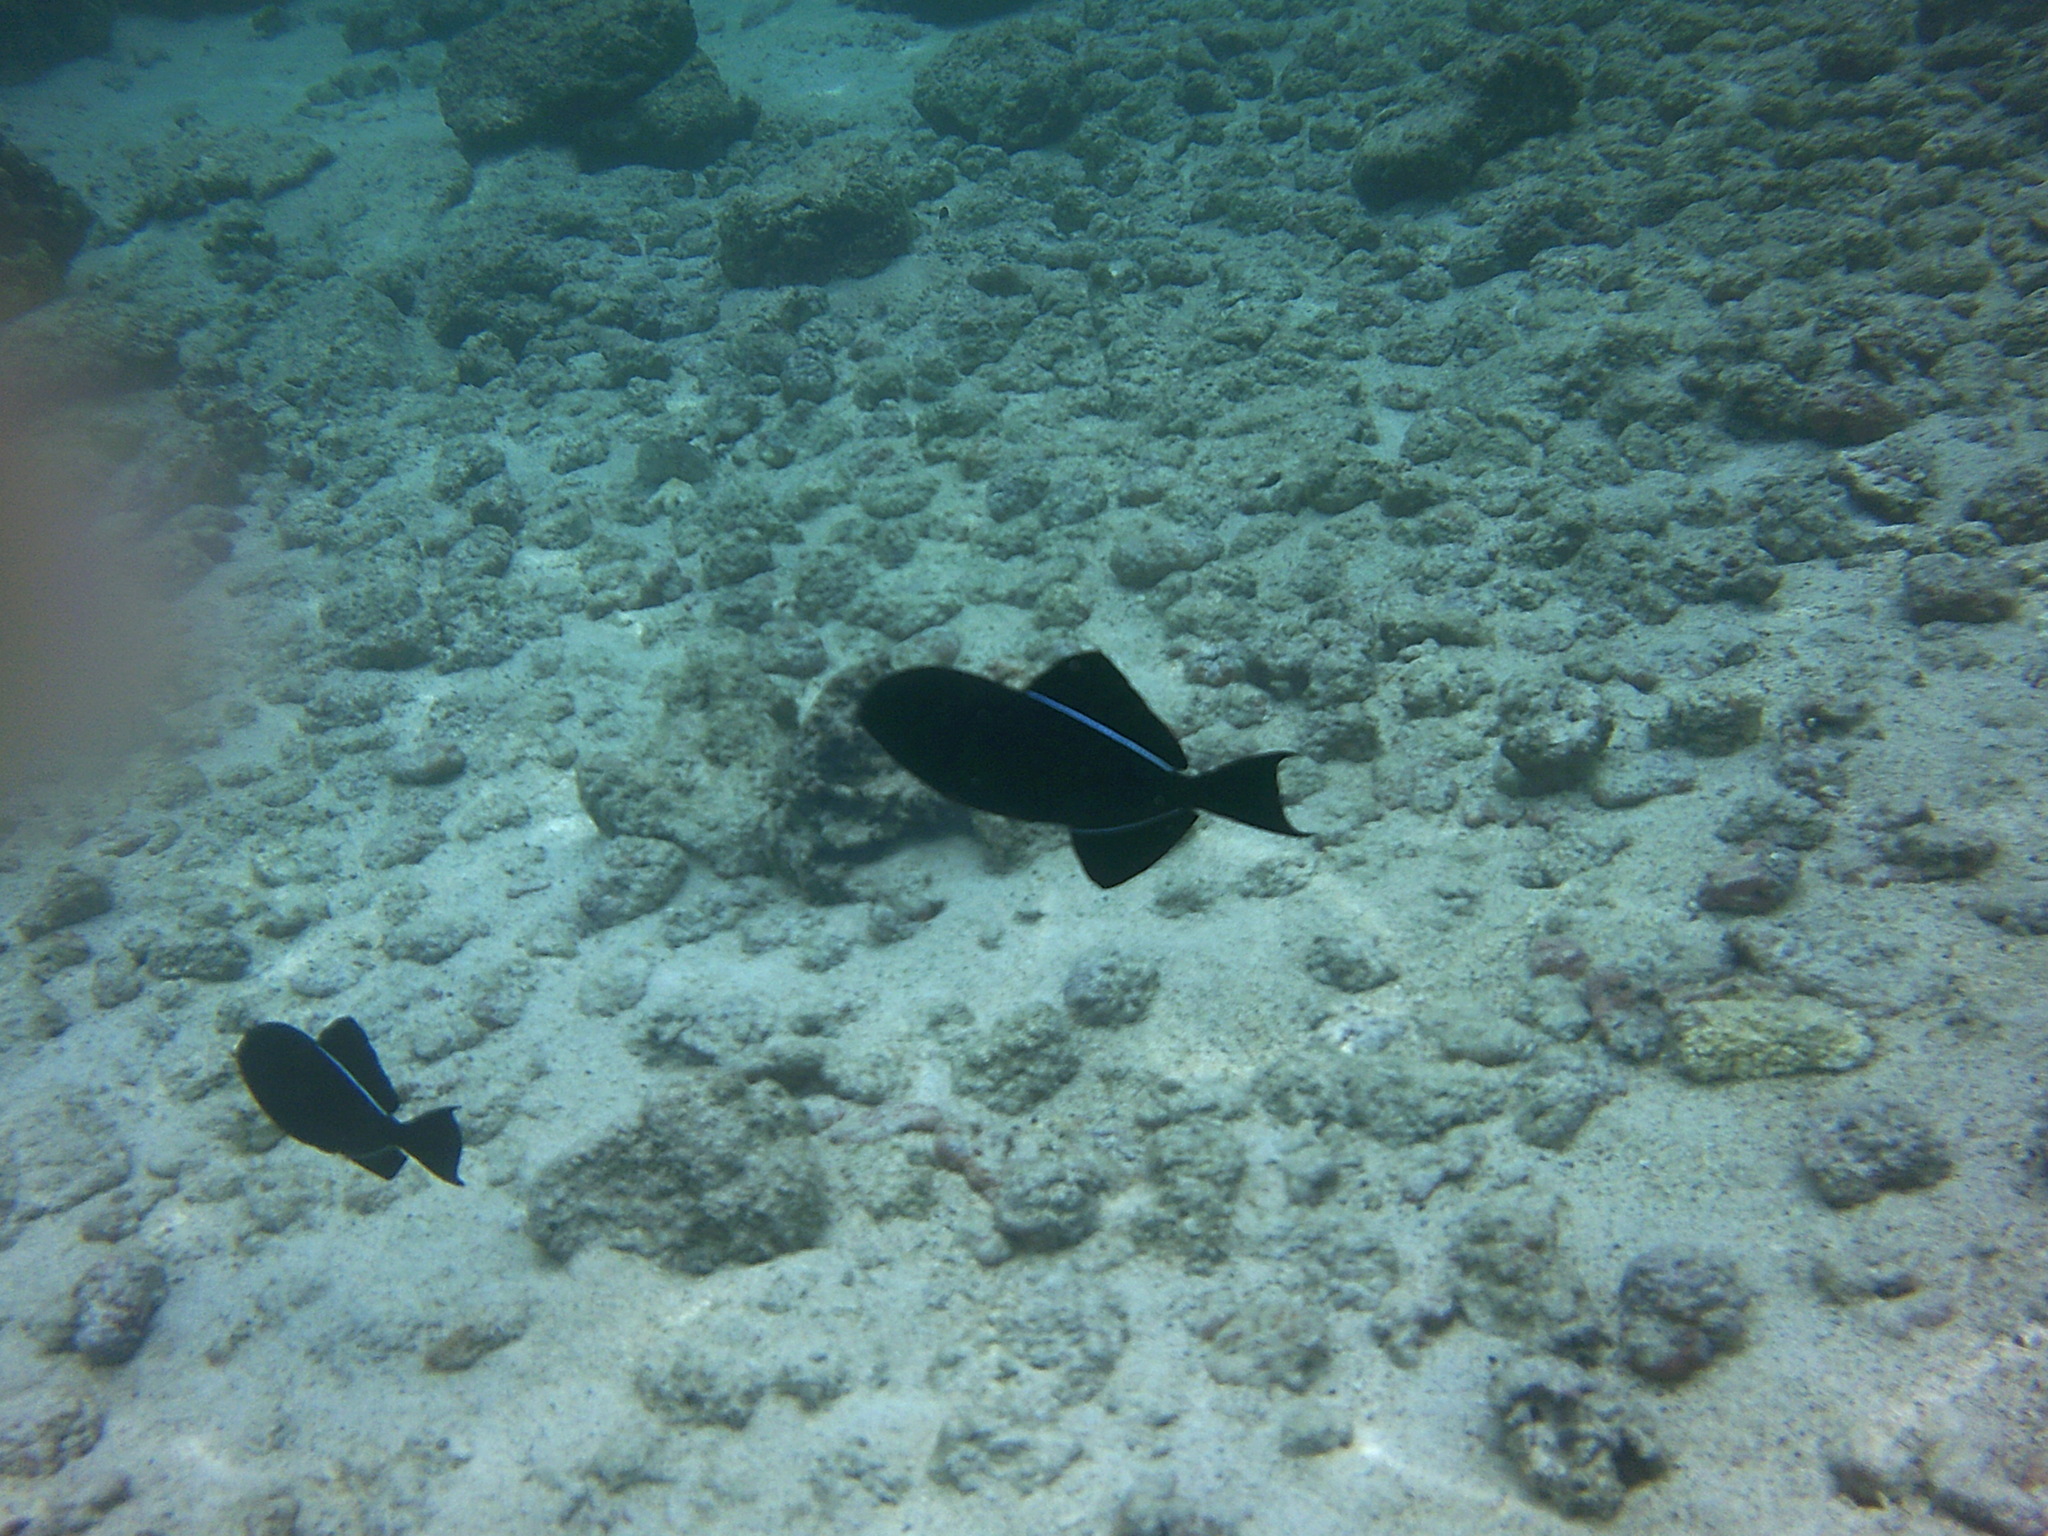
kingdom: Animalia
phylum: Chordata
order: Tetraodontiformes
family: Balistidae
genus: Melichthys
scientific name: Melichthys niger
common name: Black durgon
